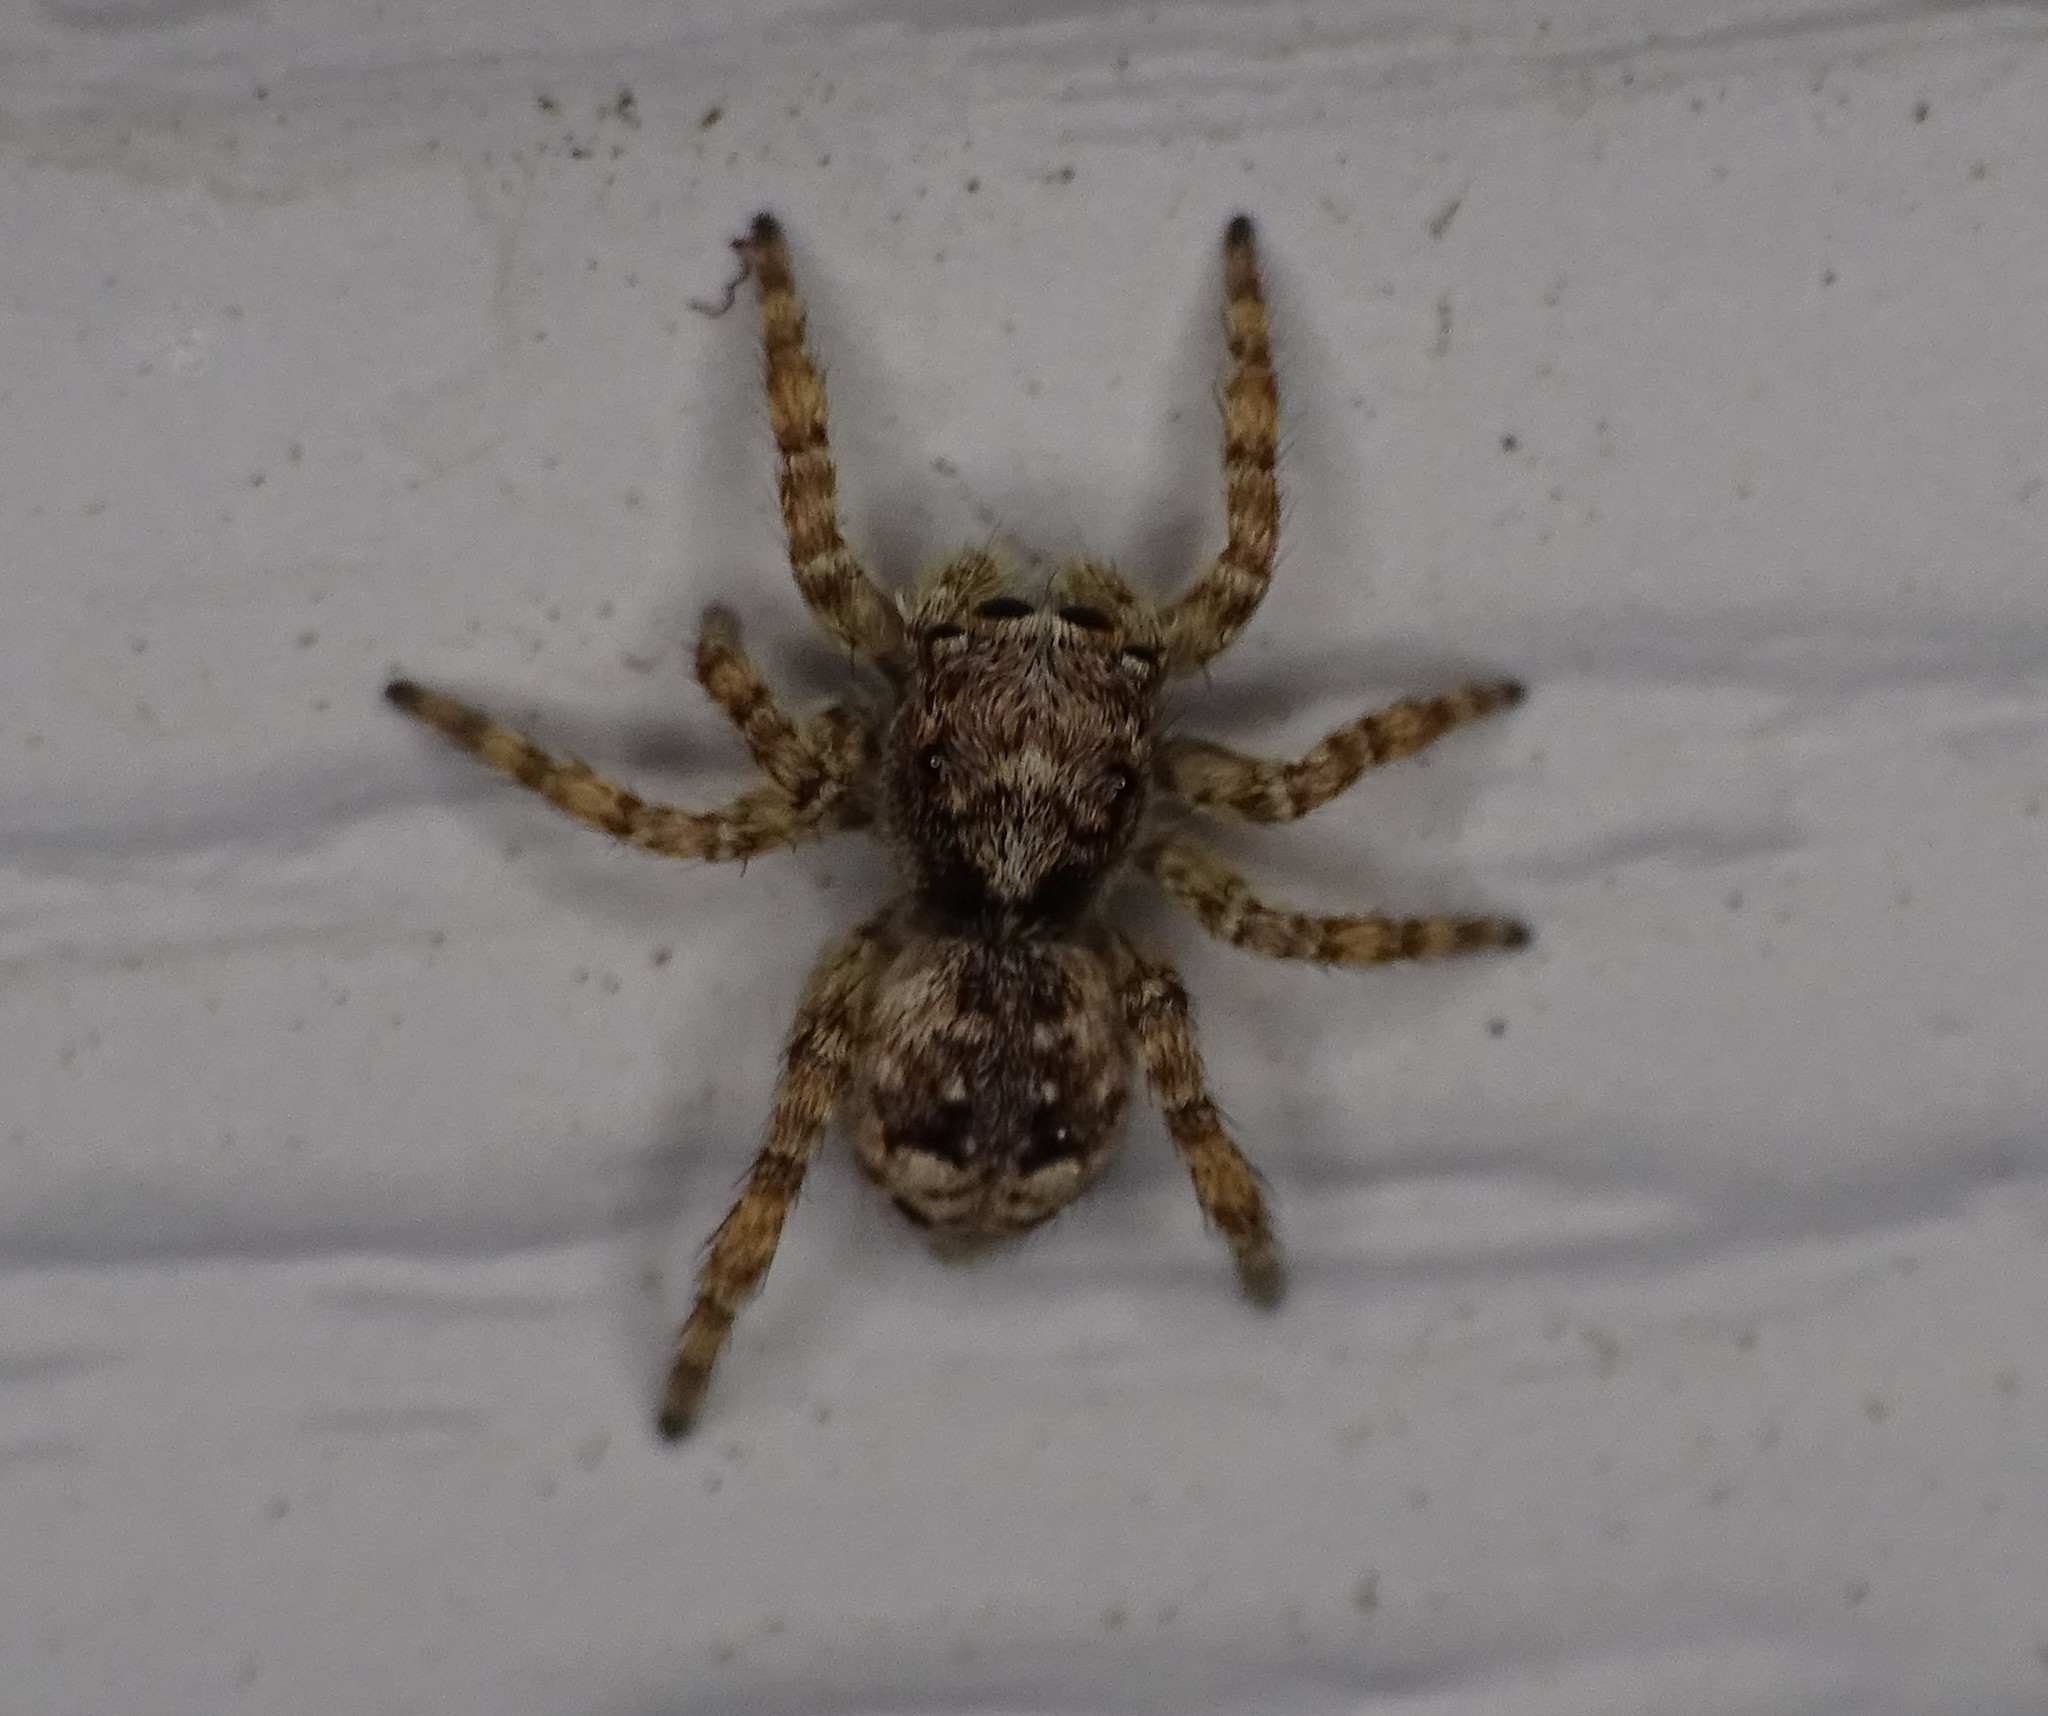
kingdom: Animalia
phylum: Arthropoda
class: Arachnida
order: Araneae
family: Salticidae
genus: Attulus
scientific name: Attulus fasciger
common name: Asiatic wall jumping spider
